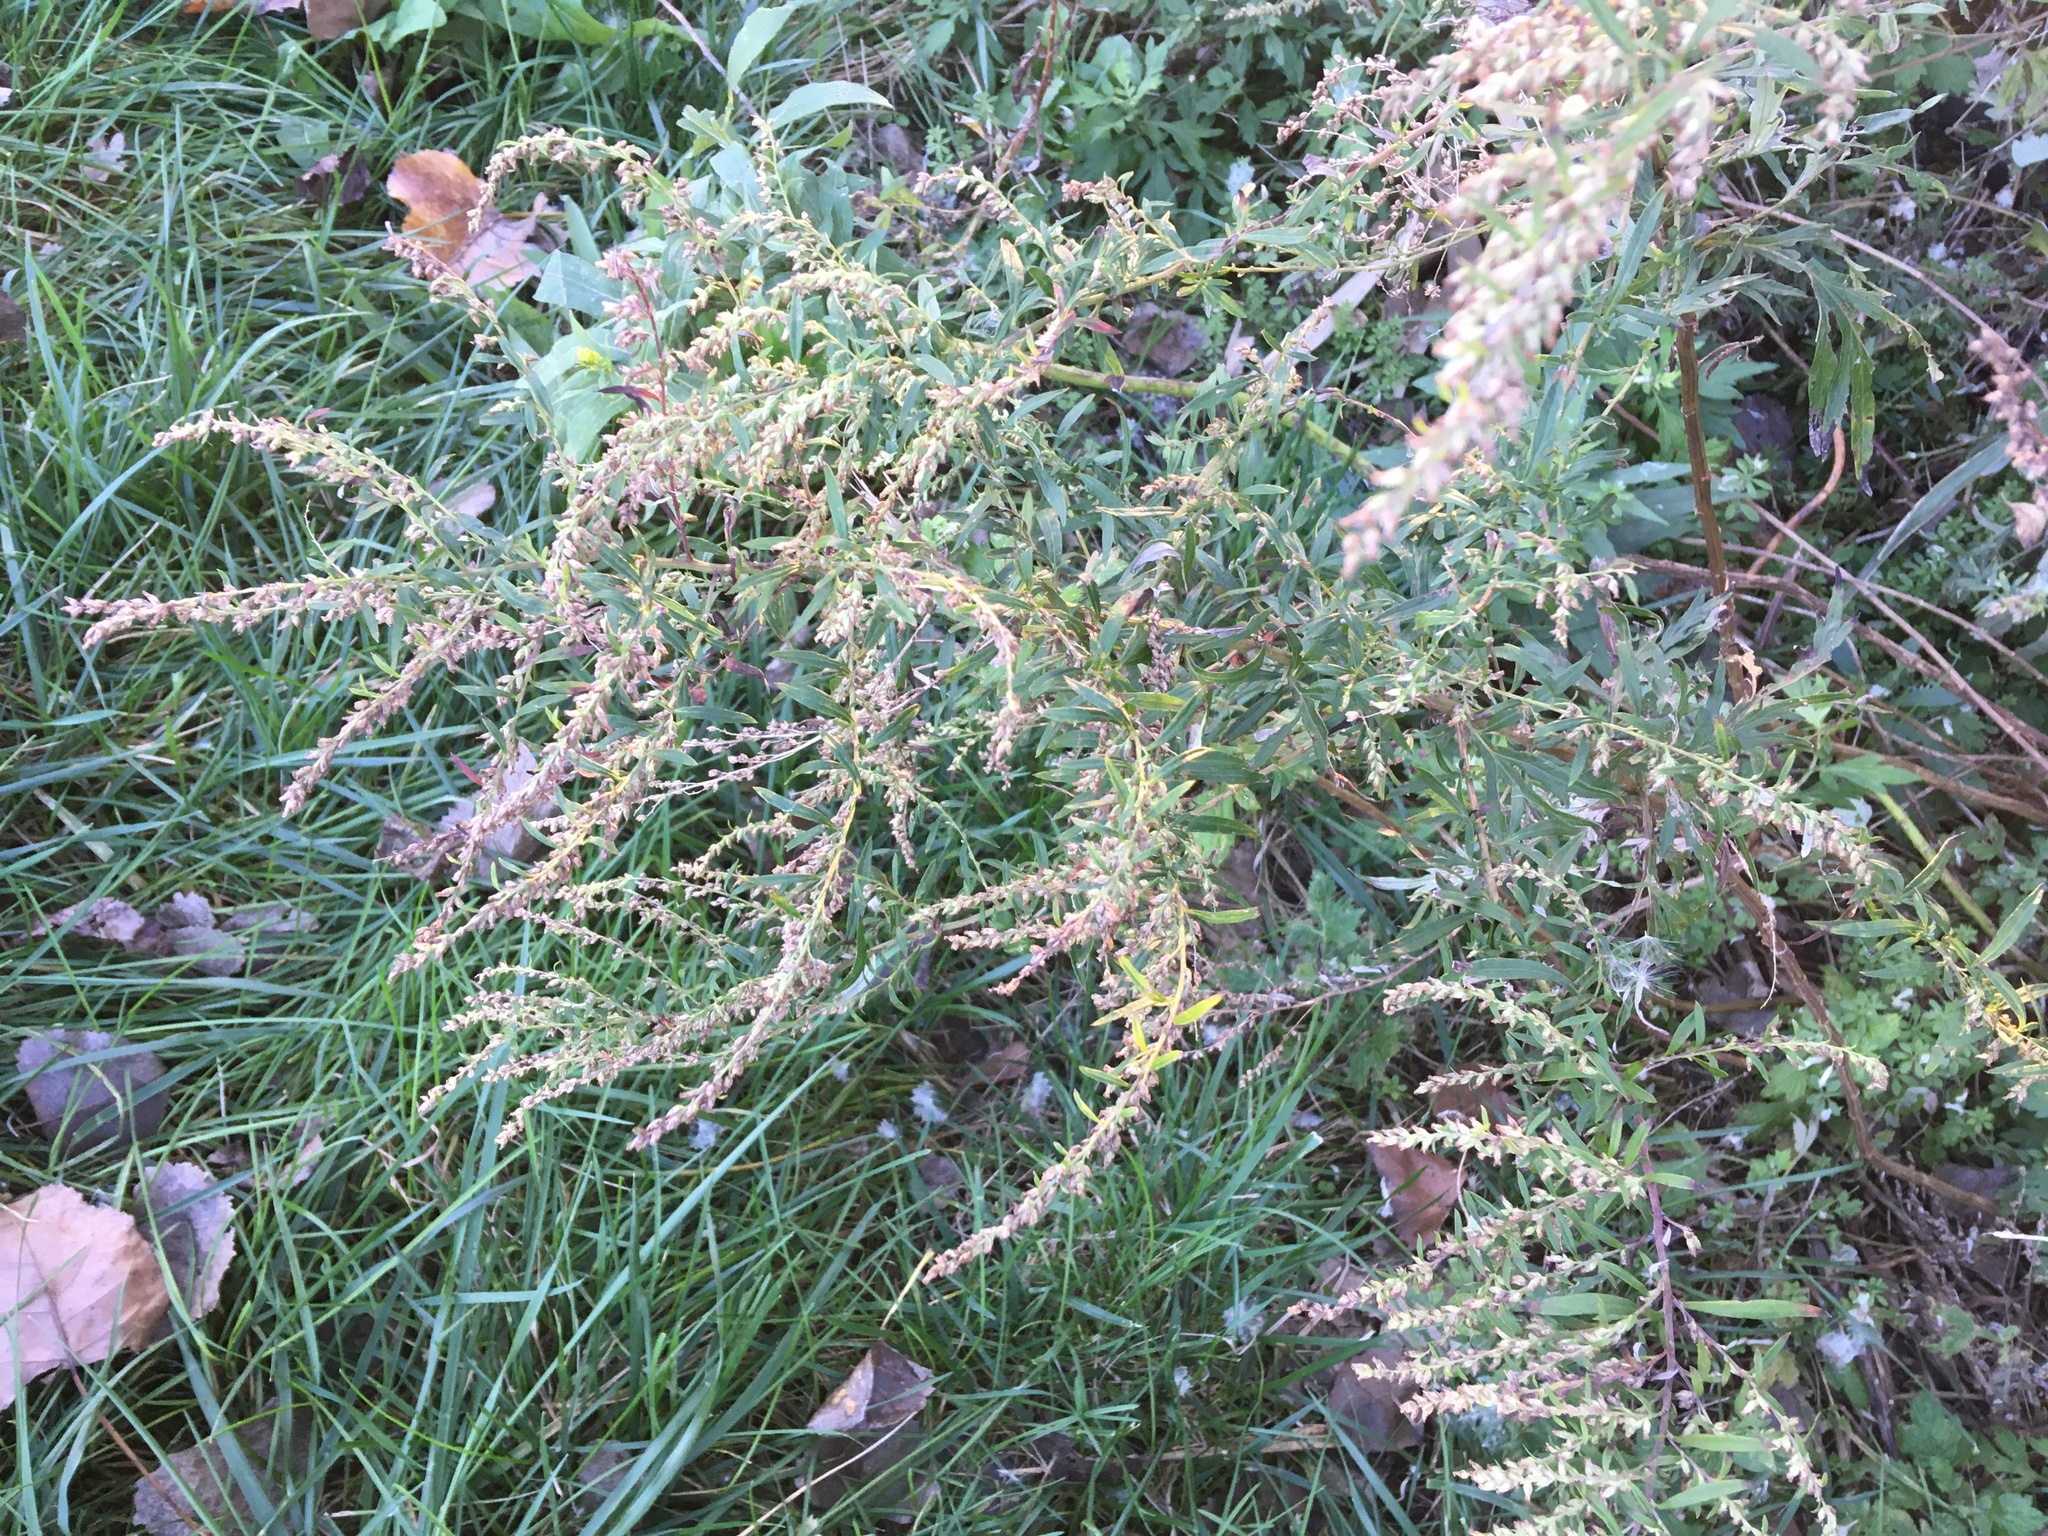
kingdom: Plantae
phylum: Tracheophyta
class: Magnoliopsida
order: Asterales
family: Asteraceae
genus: Artemisia
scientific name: Artemisia vulgaris
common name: Mugwort
